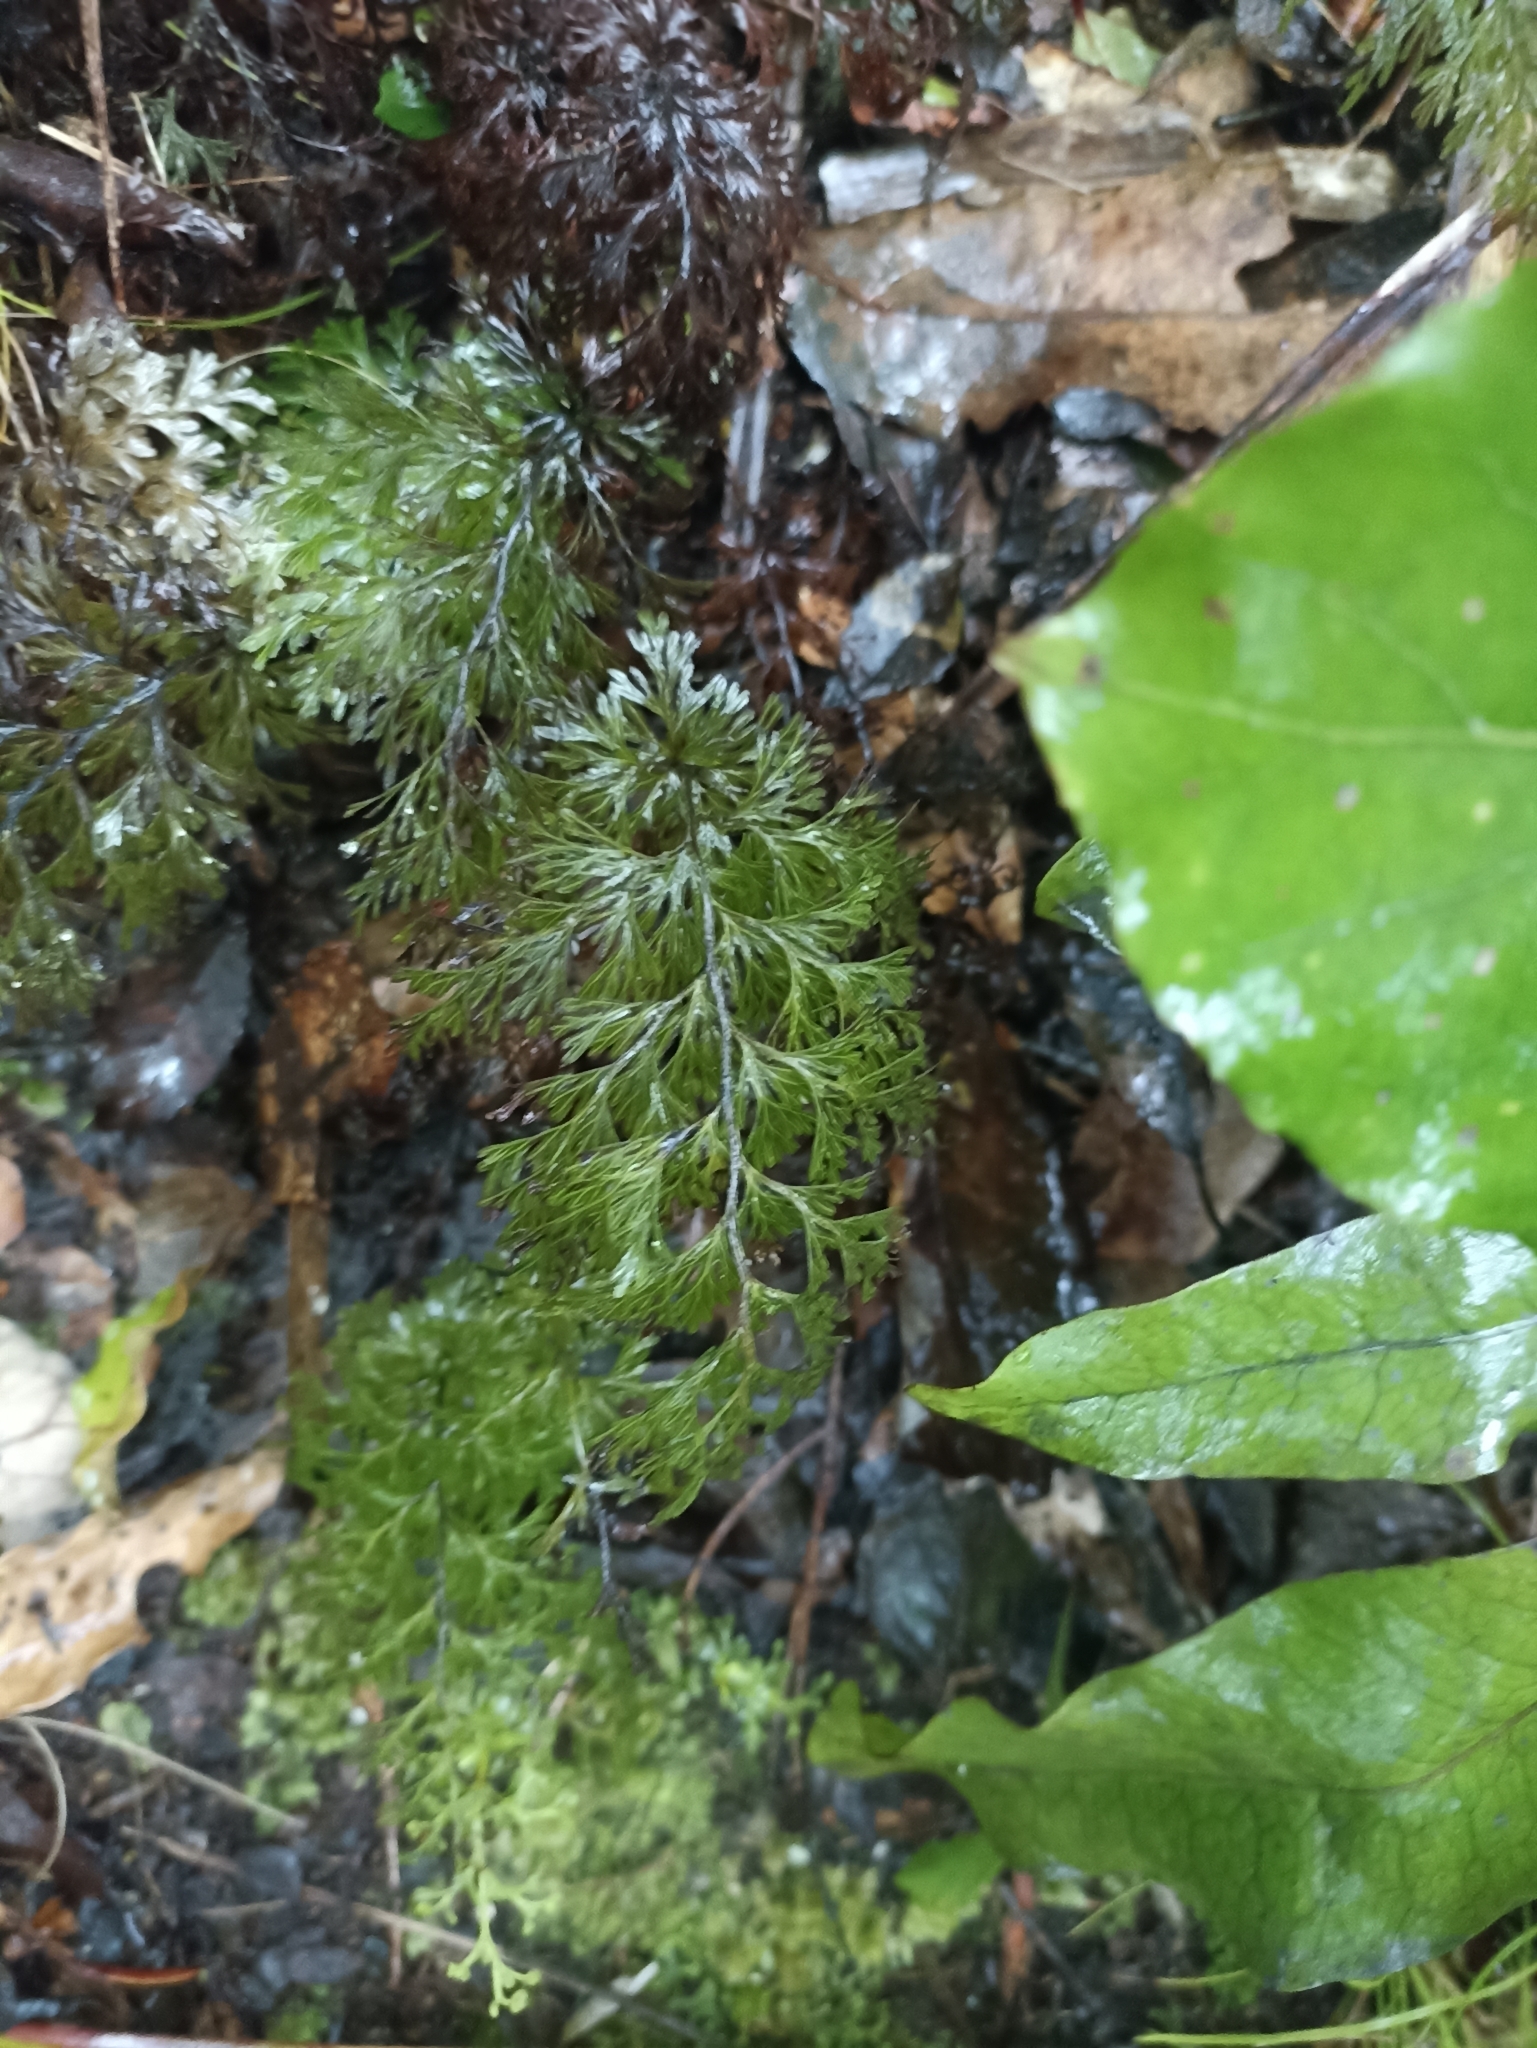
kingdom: Plantae
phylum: Tracheophyta
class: Polypodiopsida
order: Hymenophyllales
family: Hymenophyllaceae
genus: Hymenophyllum
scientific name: Hymenophyllum demissum
